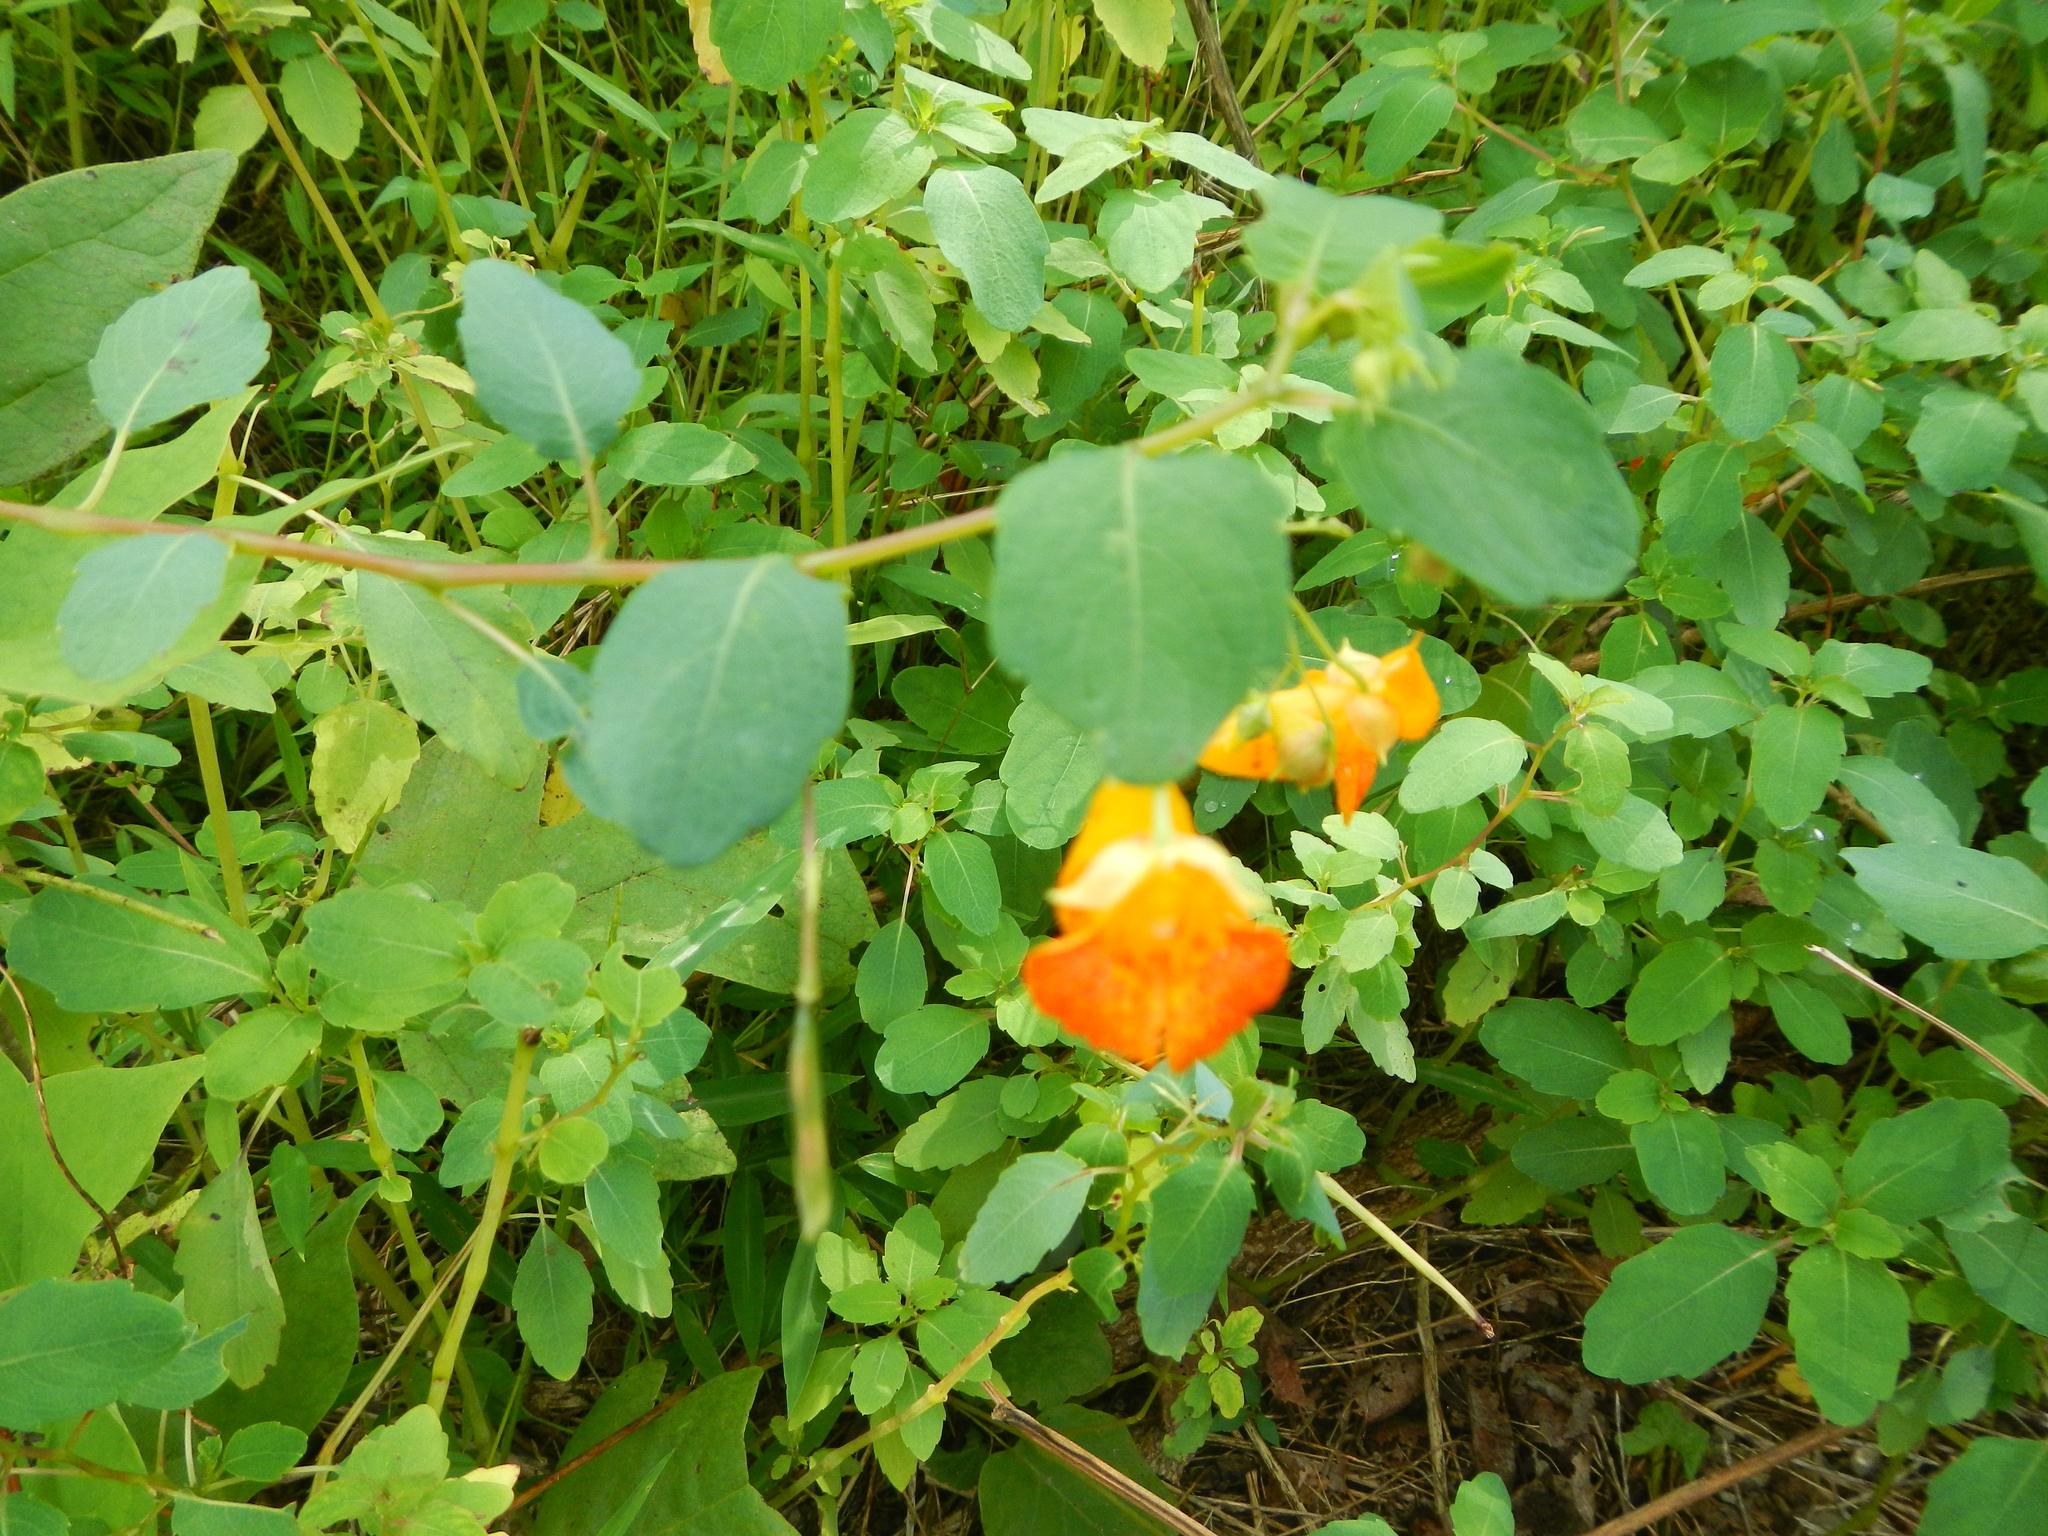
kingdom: Plantae
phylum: Tracheophyta
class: Magnoliopsida
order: Ericales
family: Balsaminaceae
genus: Impatiens
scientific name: Impatiens capensis
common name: Orange balsam
